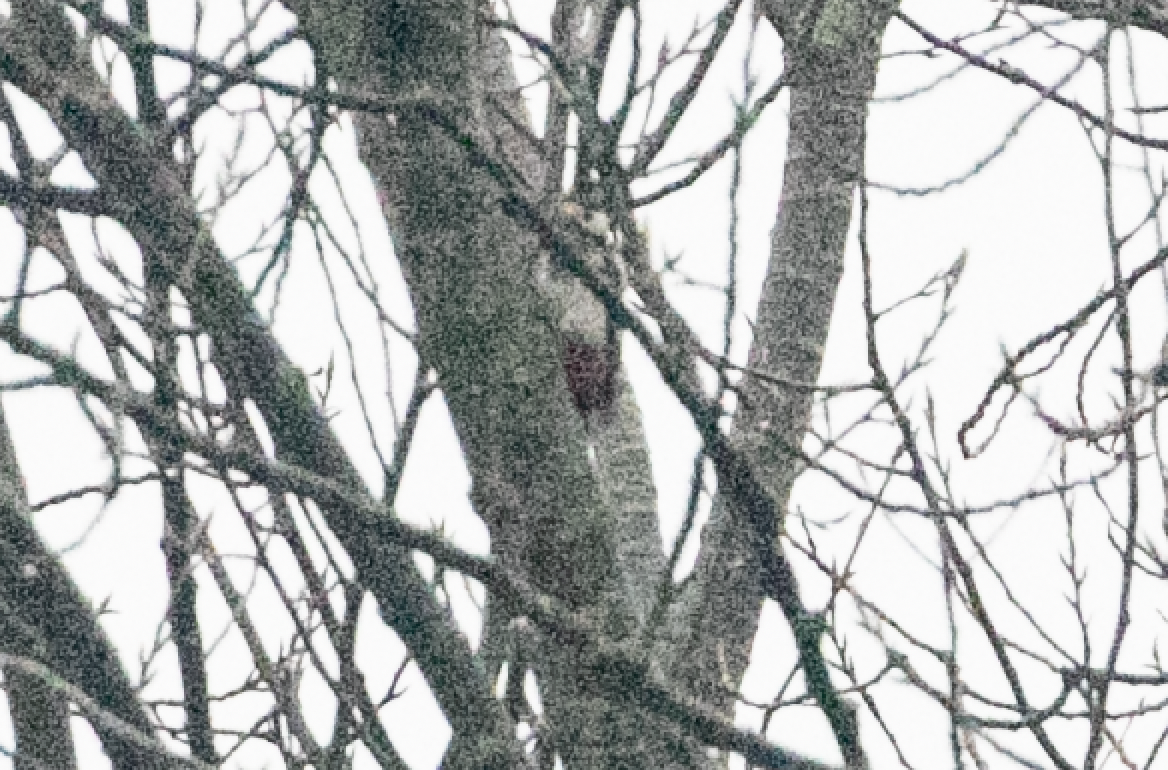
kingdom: Animalia
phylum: Chordata
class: Aves
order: Piciformes
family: Picidae
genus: Dendrocopos
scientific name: Dendrocopos major
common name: Great spotted woodpecker
